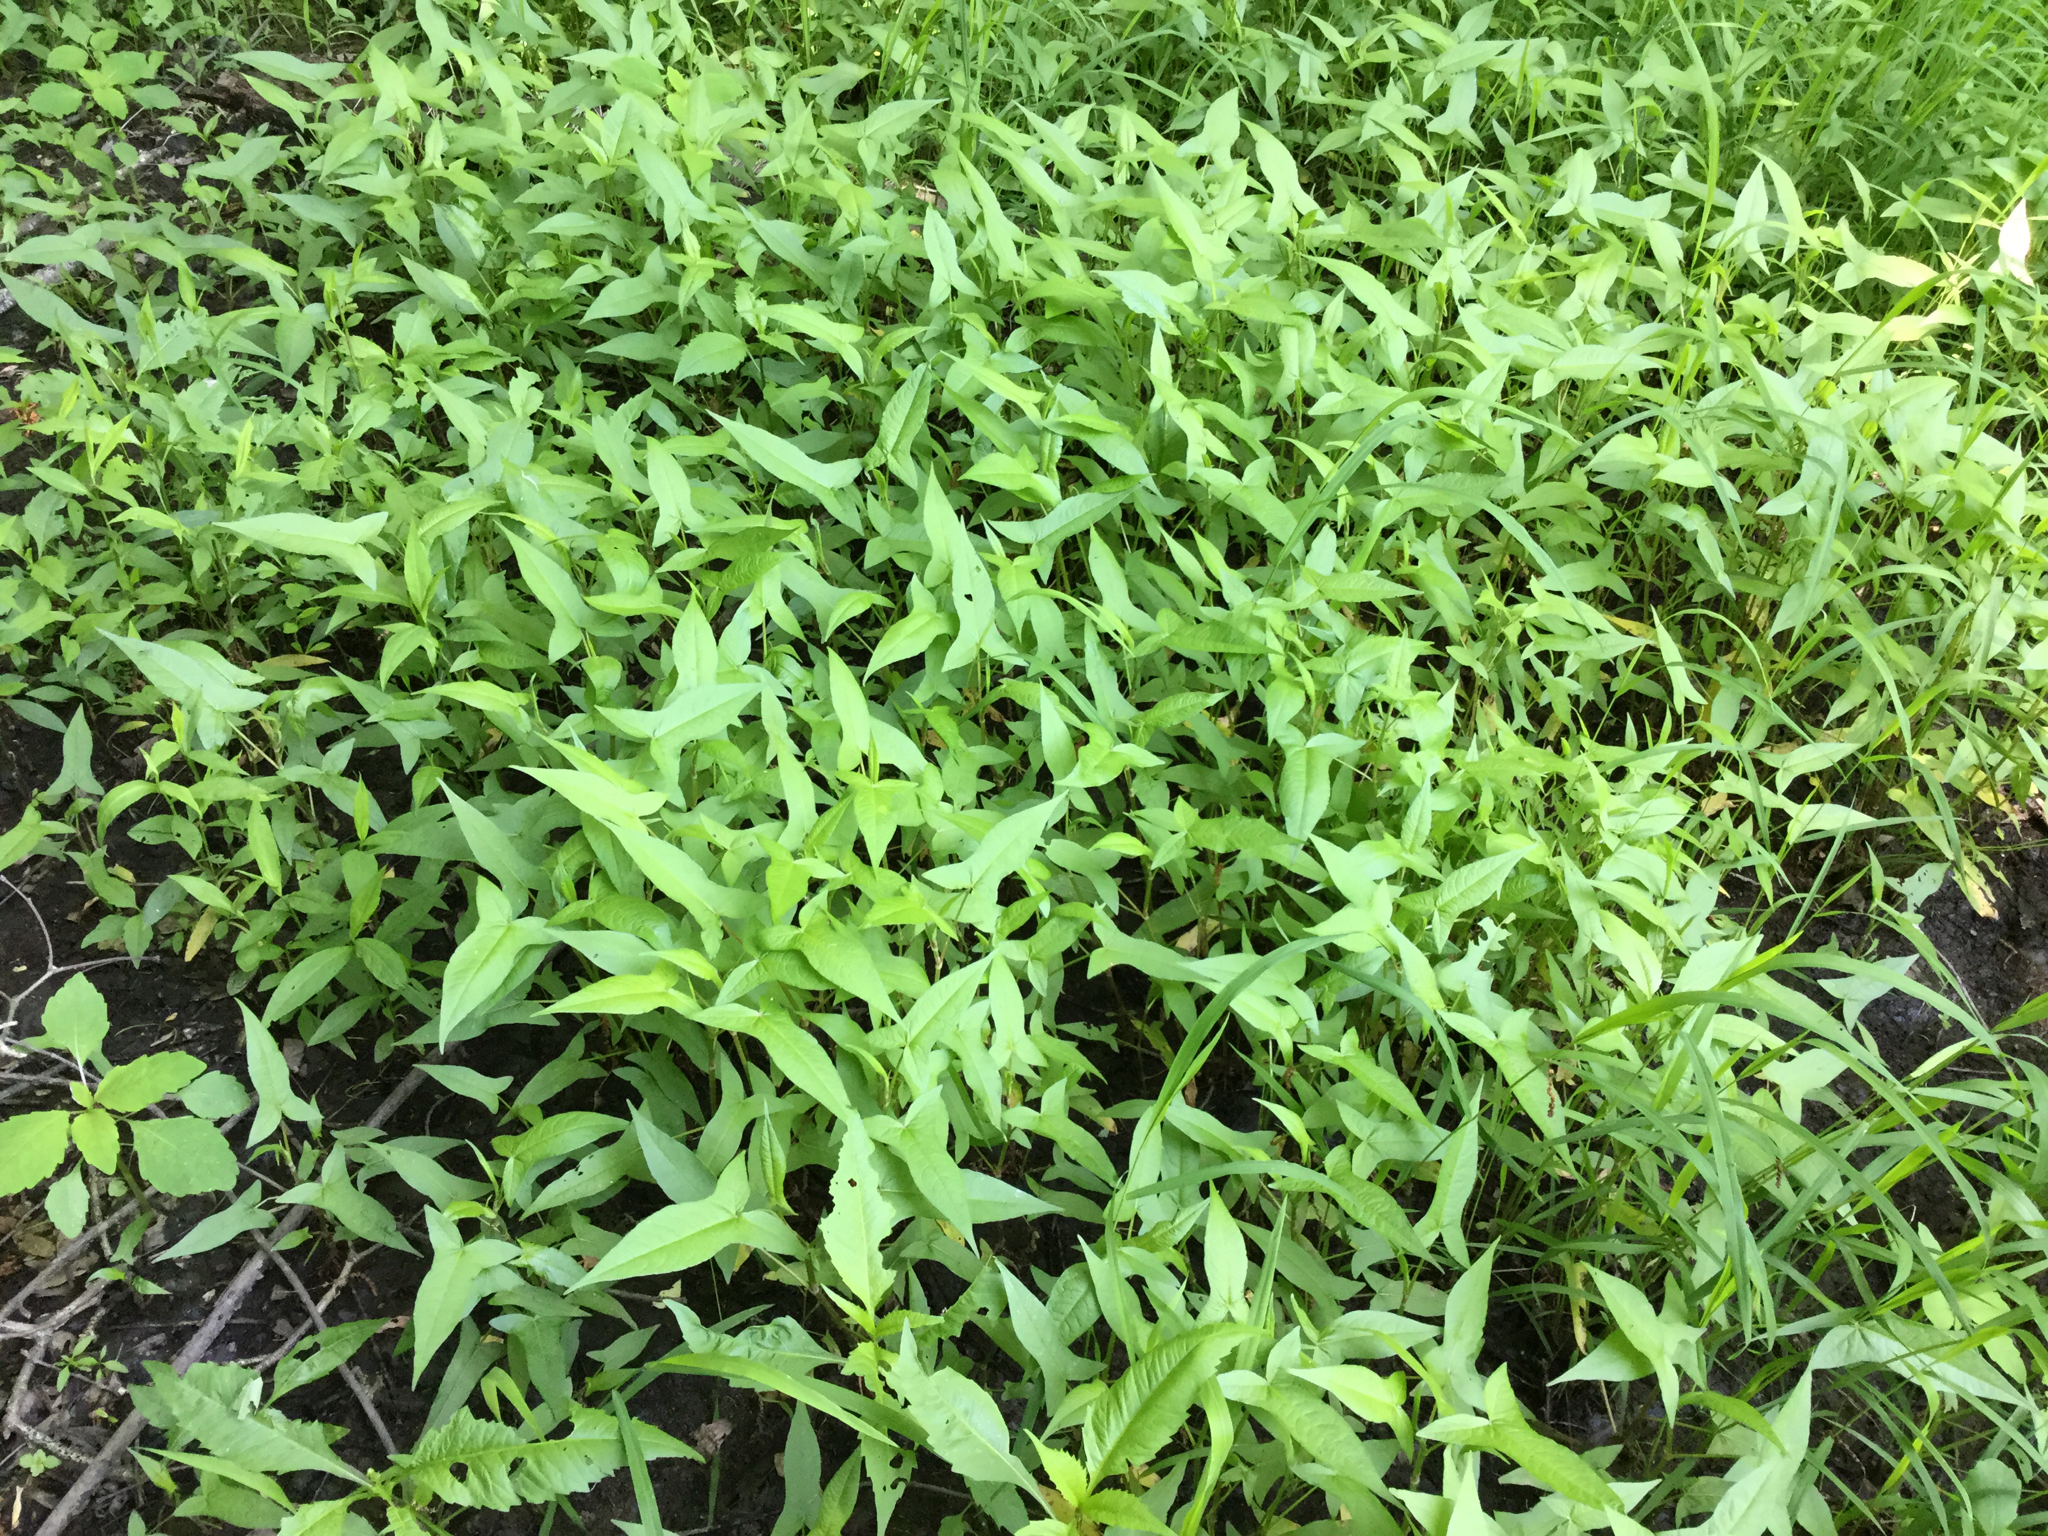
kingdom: Plantae
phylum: Tracheophyta
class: Magnoliopsida
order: Caryophyllales
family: Polygonaceae
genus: Persicaria
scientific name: Persicaria arifolia
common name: Halberd-leaved tear-thumb
